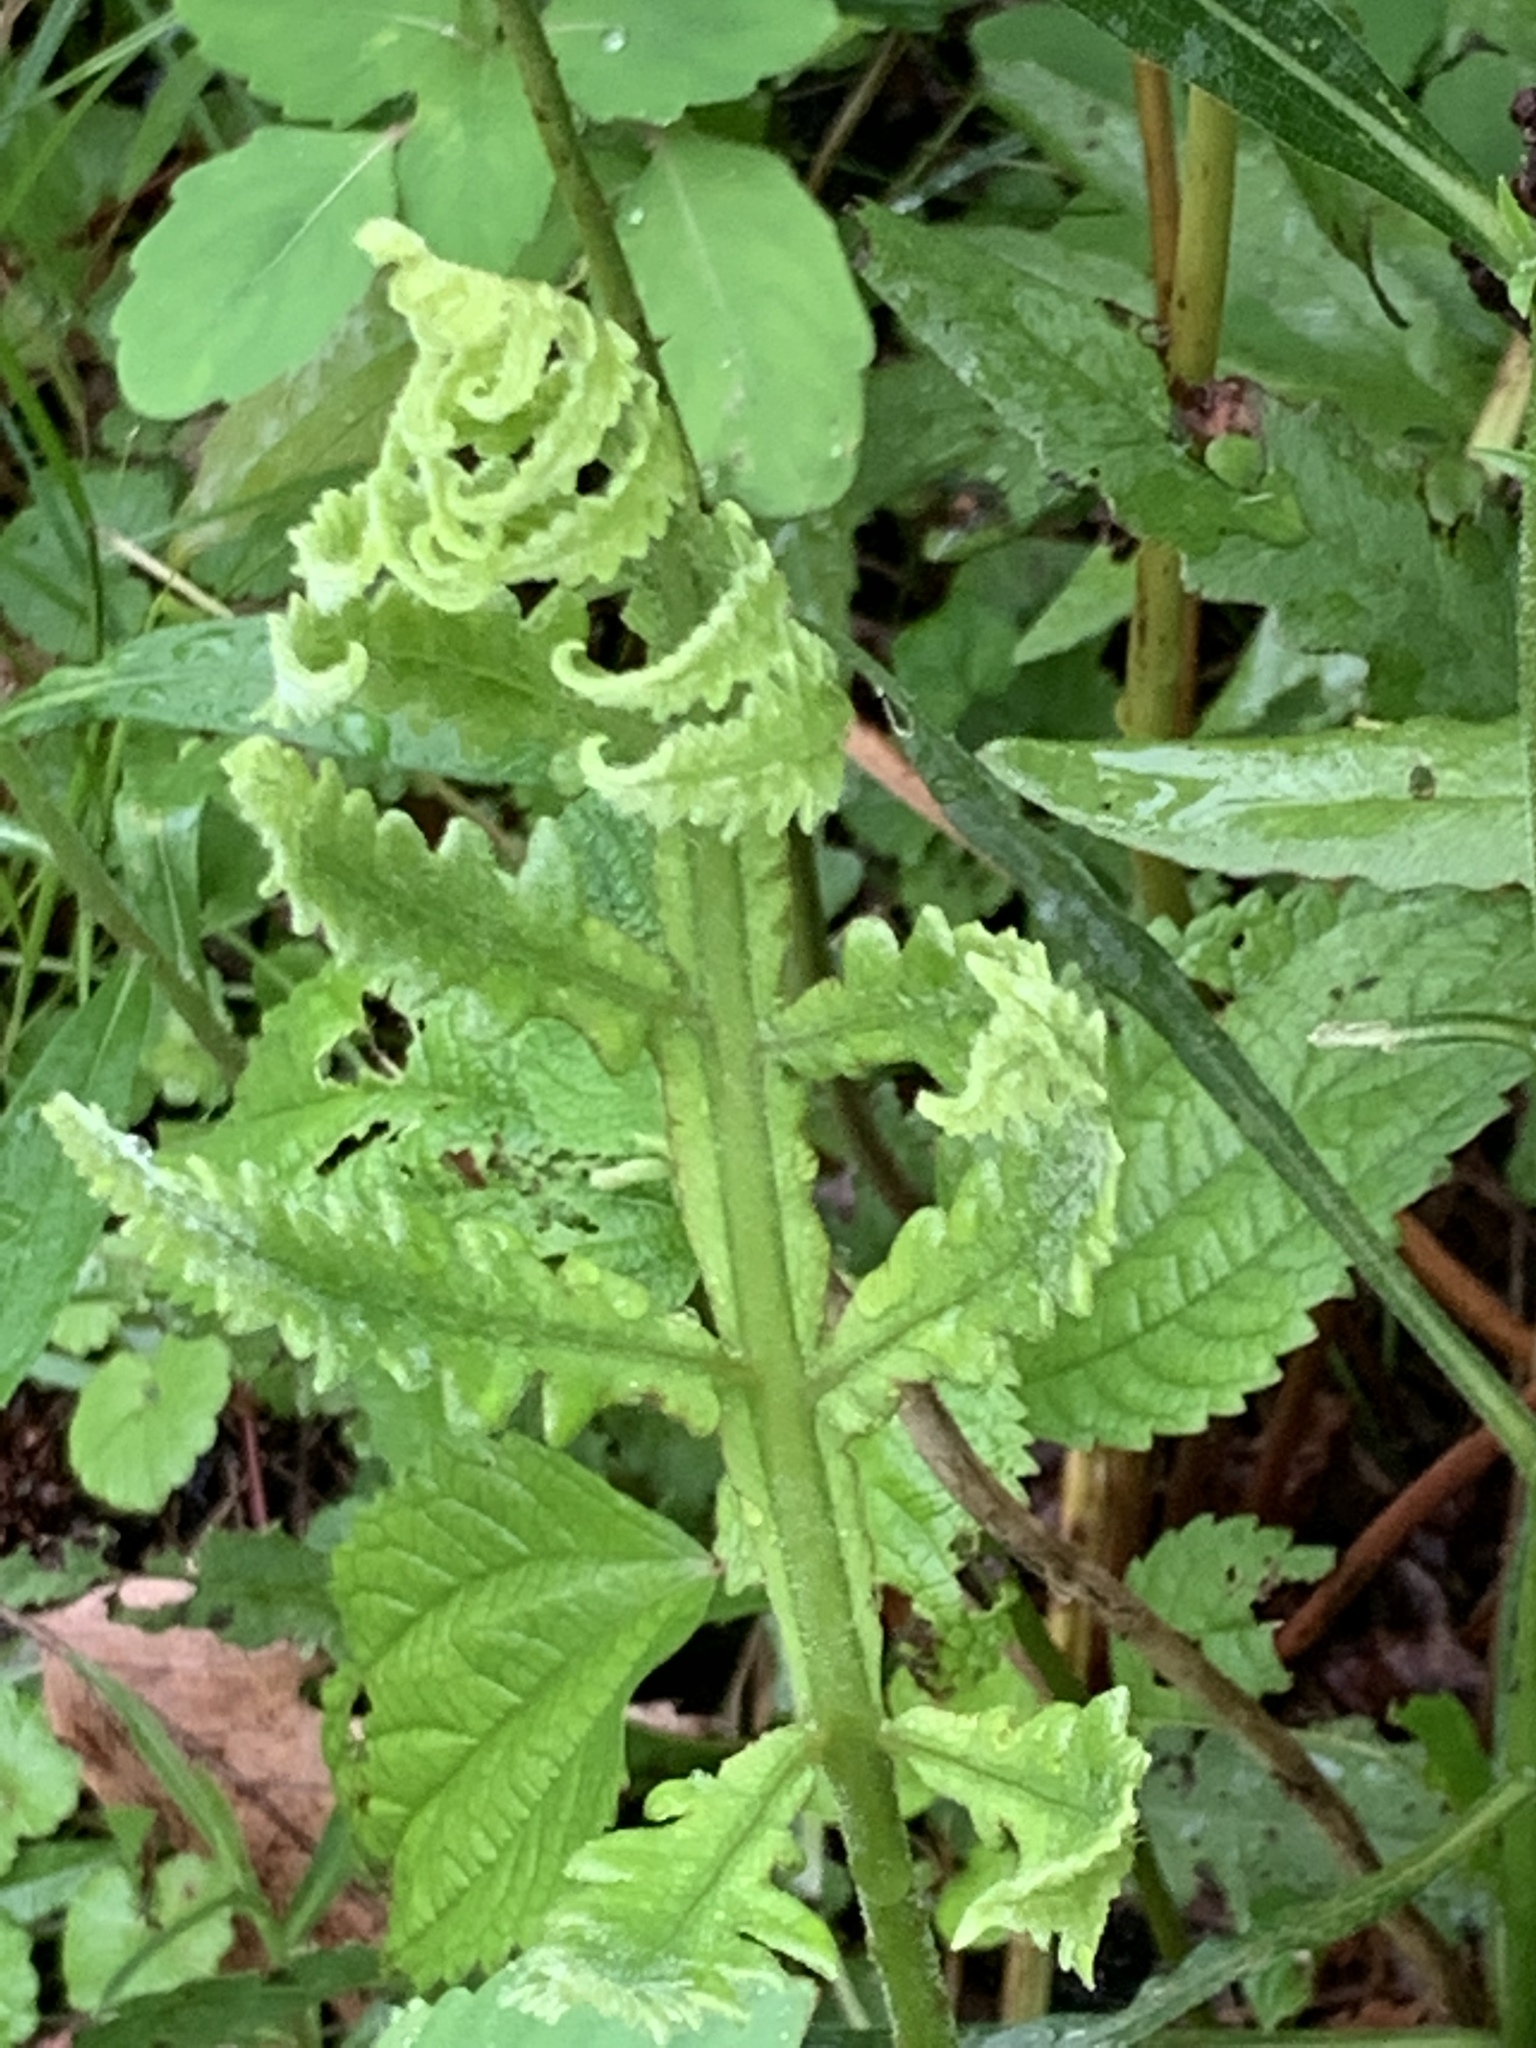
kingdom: Plantae
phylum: Tracheophyta
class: Polypodiopsida
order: Polypodiales
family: Onocleaceae
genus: Onoclea
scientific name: Onoclea sensibilis
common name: Sensitive fern
